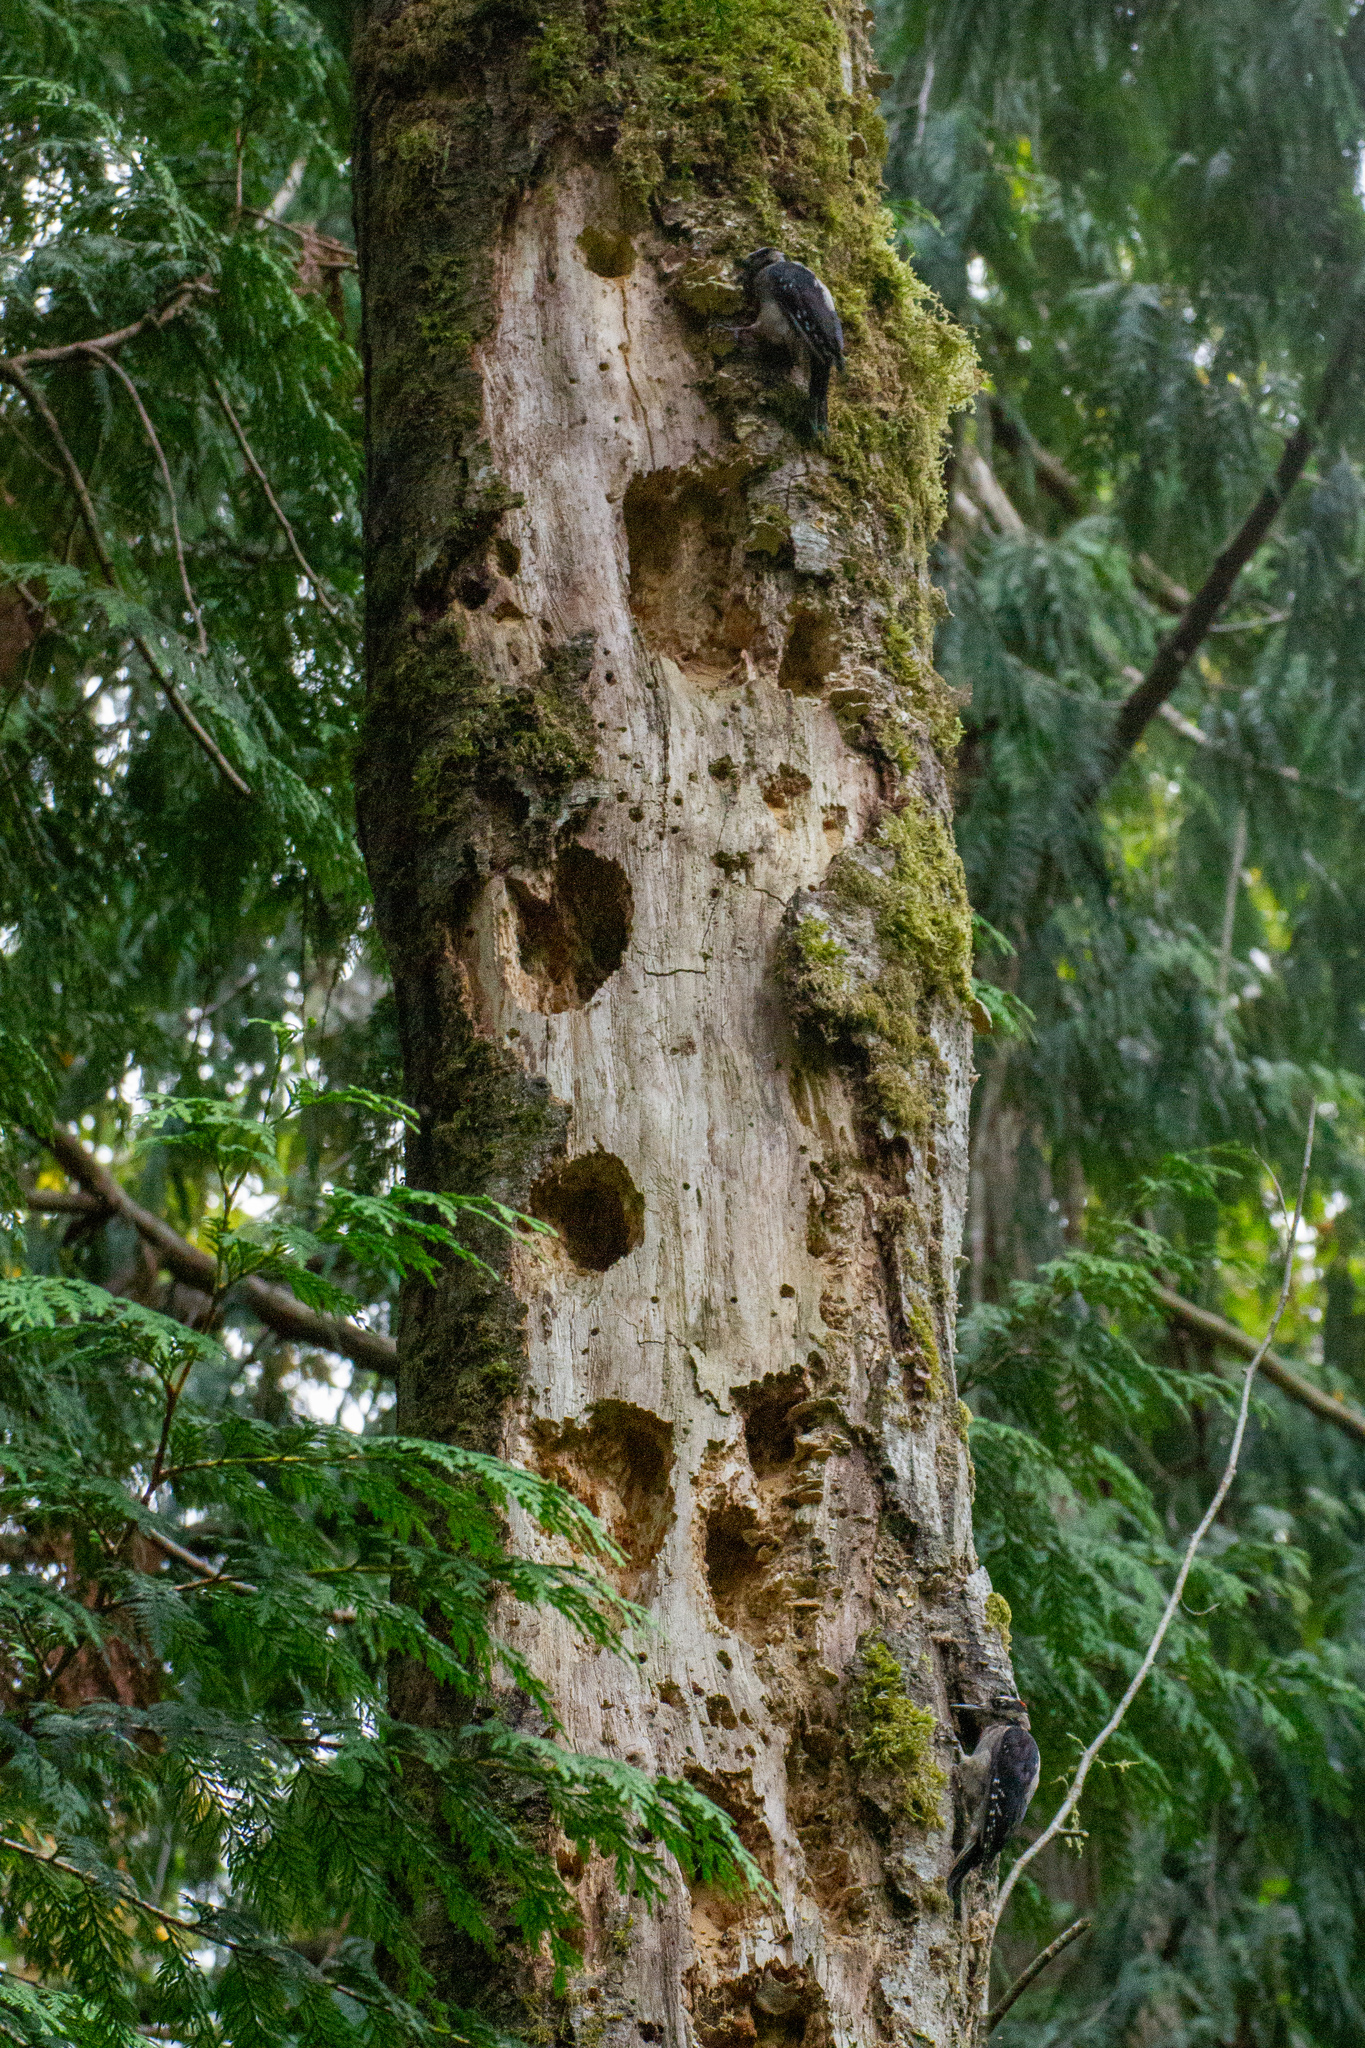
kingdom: Animalia
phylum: Chordata
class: Aves
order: Piciformes
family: Picidae
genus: Leuconotopicus
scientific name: Leuconotopicus villosus
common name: Hairy woodpecker
